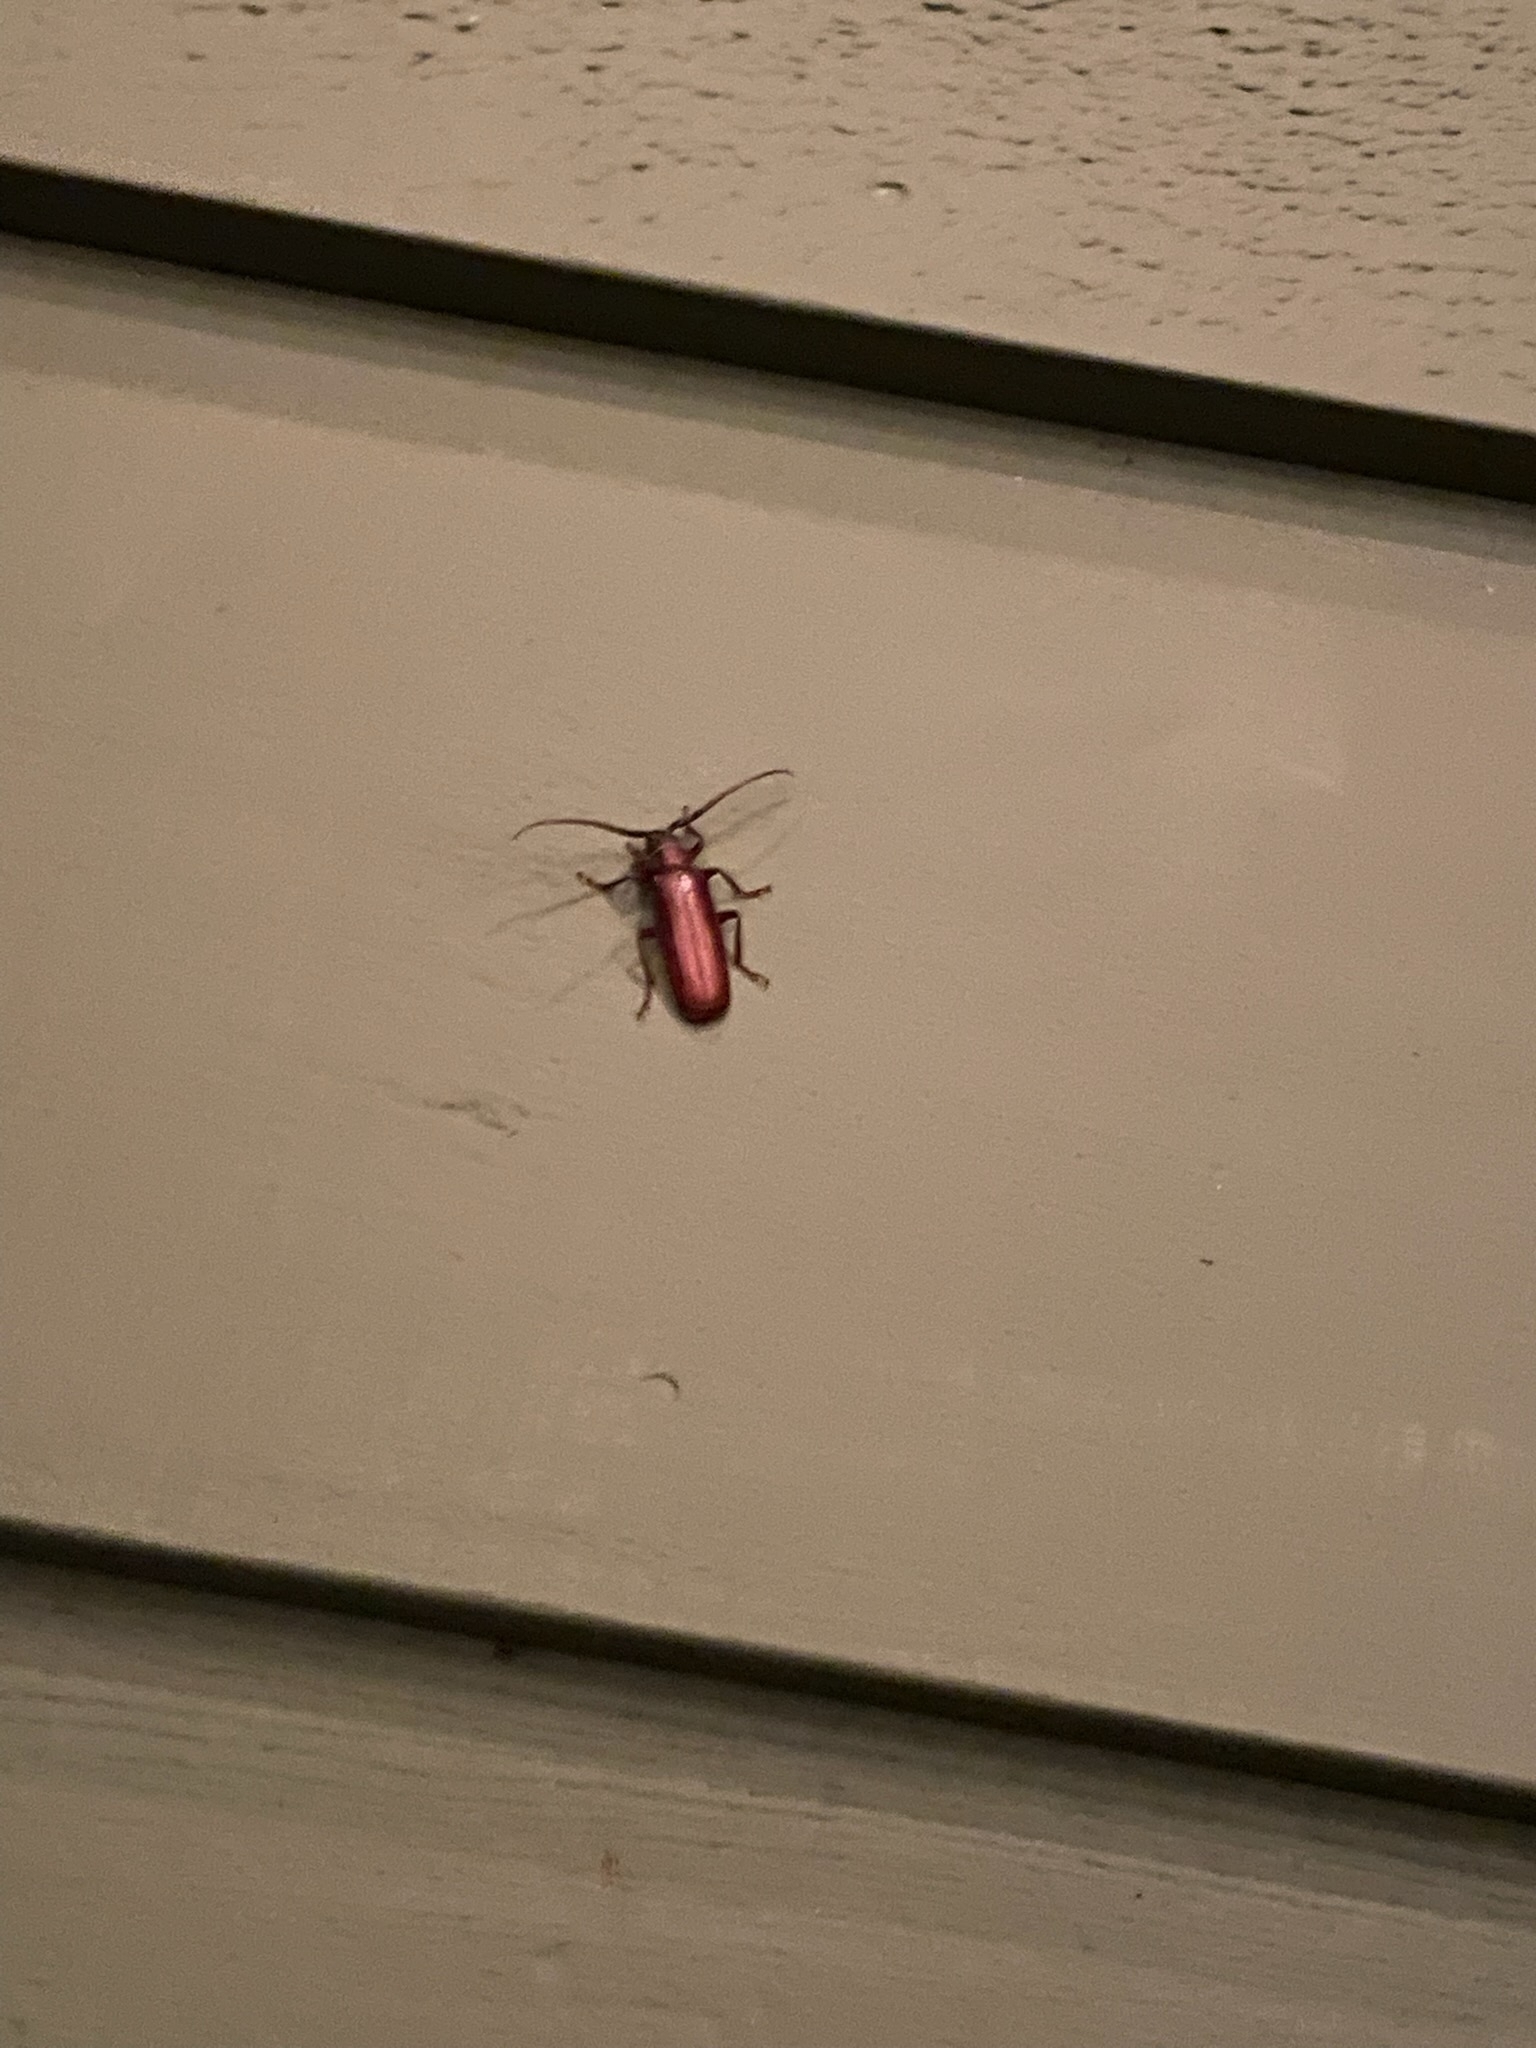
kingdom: Animalia
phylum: Arthropoda
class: Insecta
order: Coleoptera
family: Cerambycidae
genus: Orthosoma
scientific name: Orthosoma brunneum
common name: Brown prionid beetle
